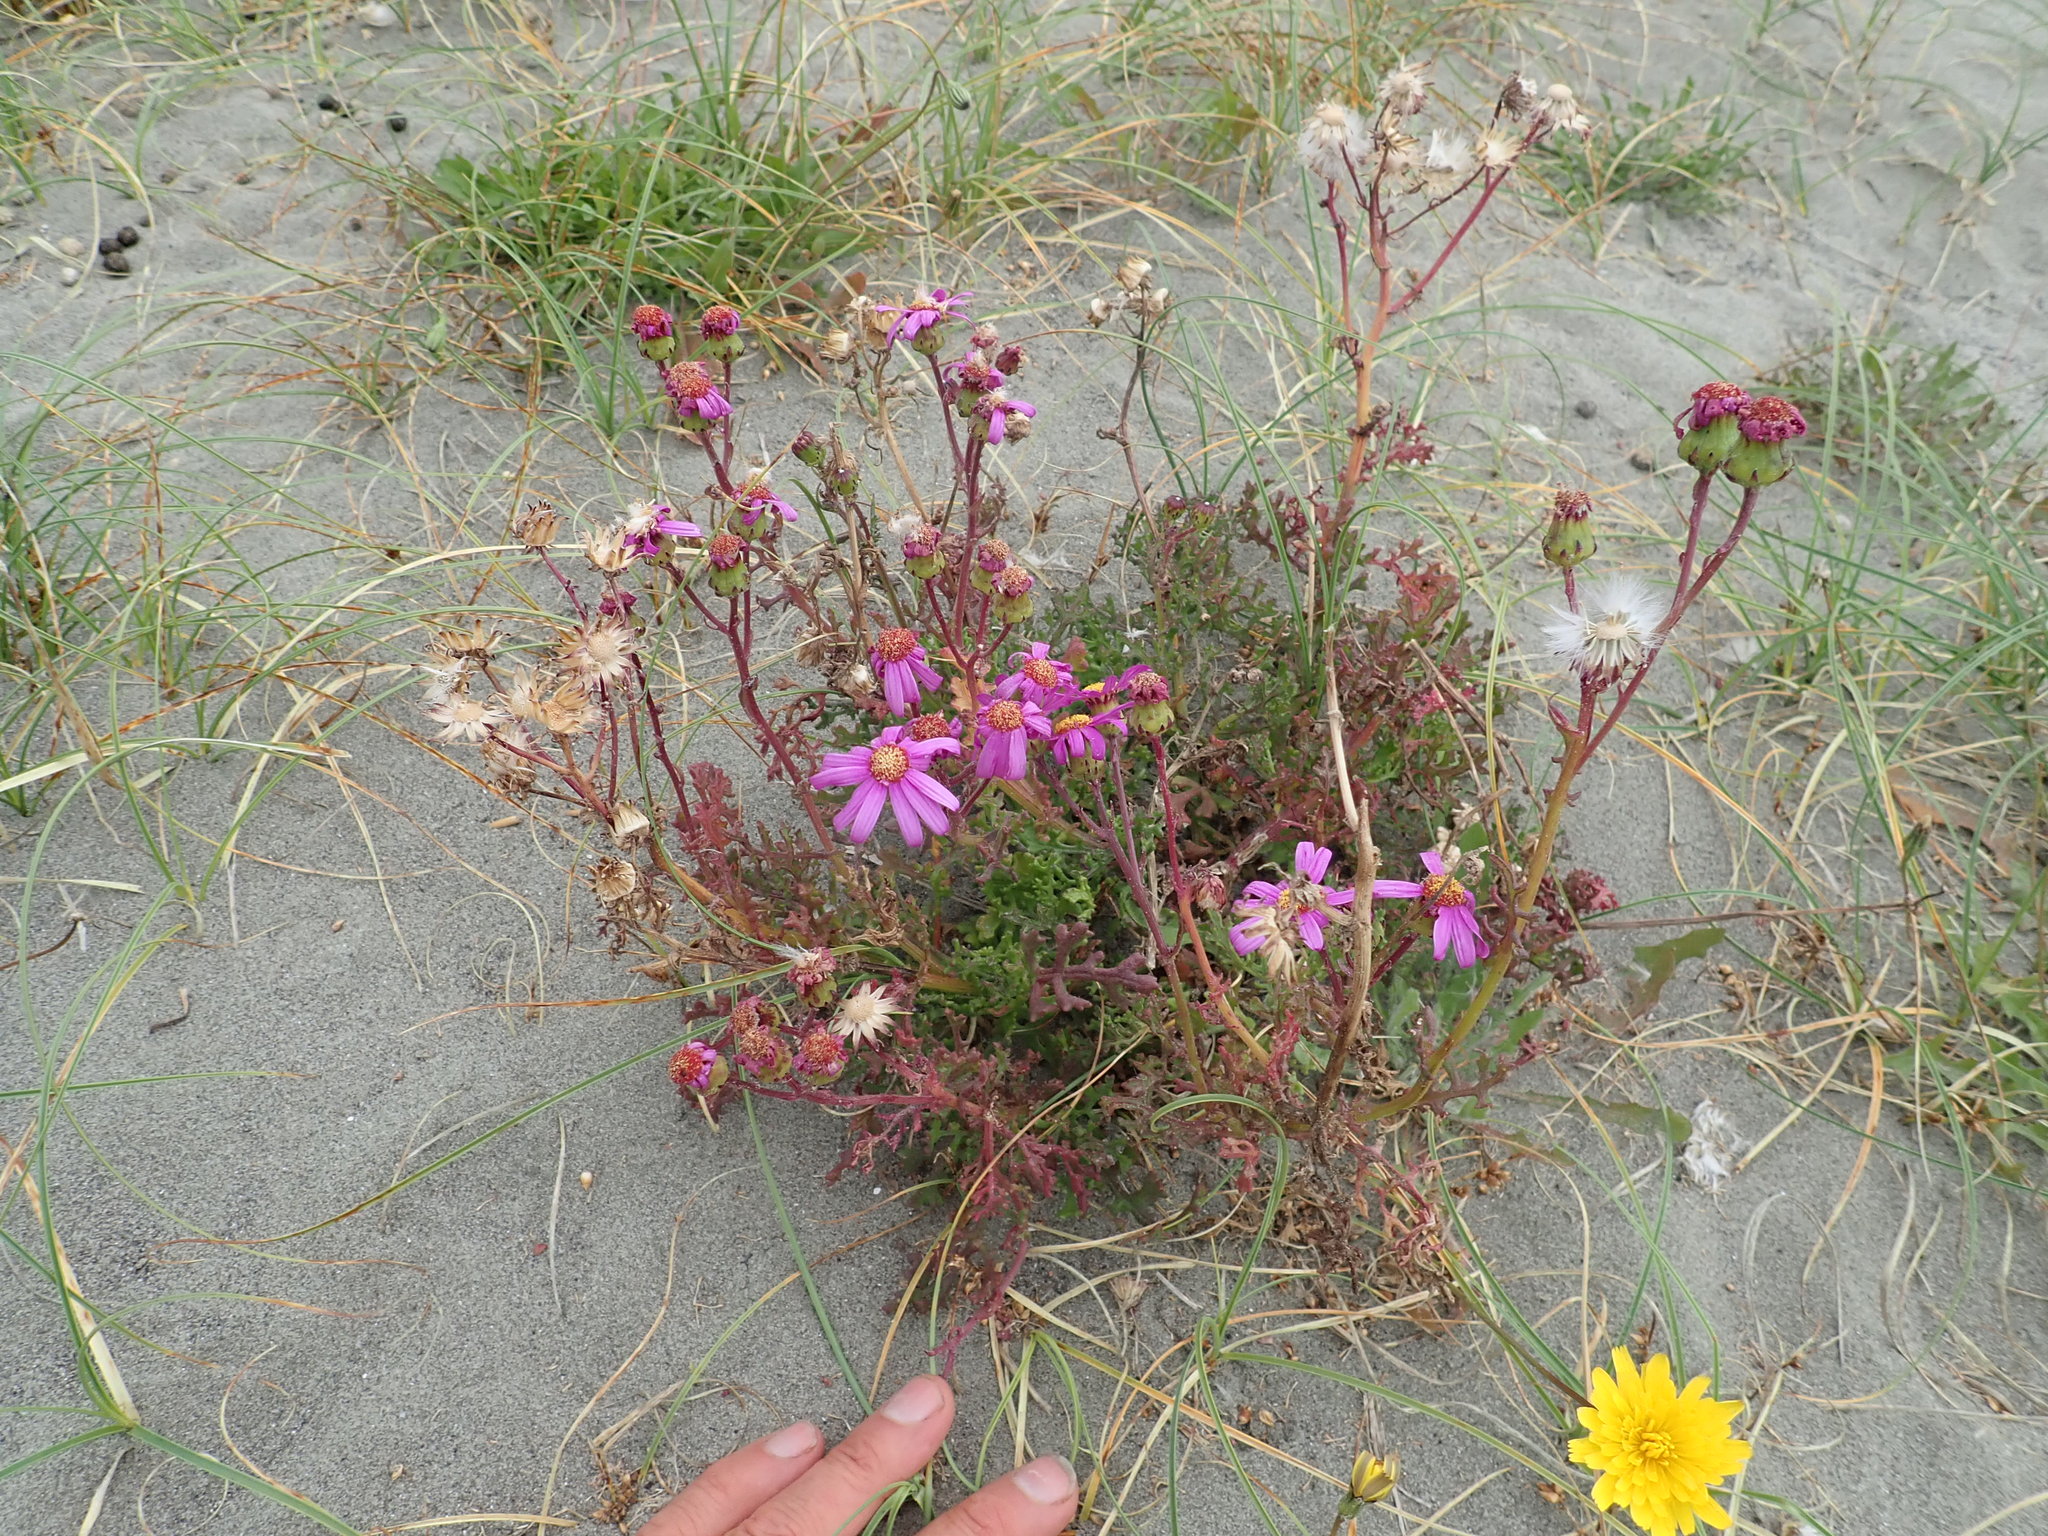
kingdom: Plantae
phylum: Tracheophyta
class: Magnoliopsida
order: Asterales
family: Asteraceae
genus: Senecio
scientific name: Senecio elegans
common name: Purple groundsel
